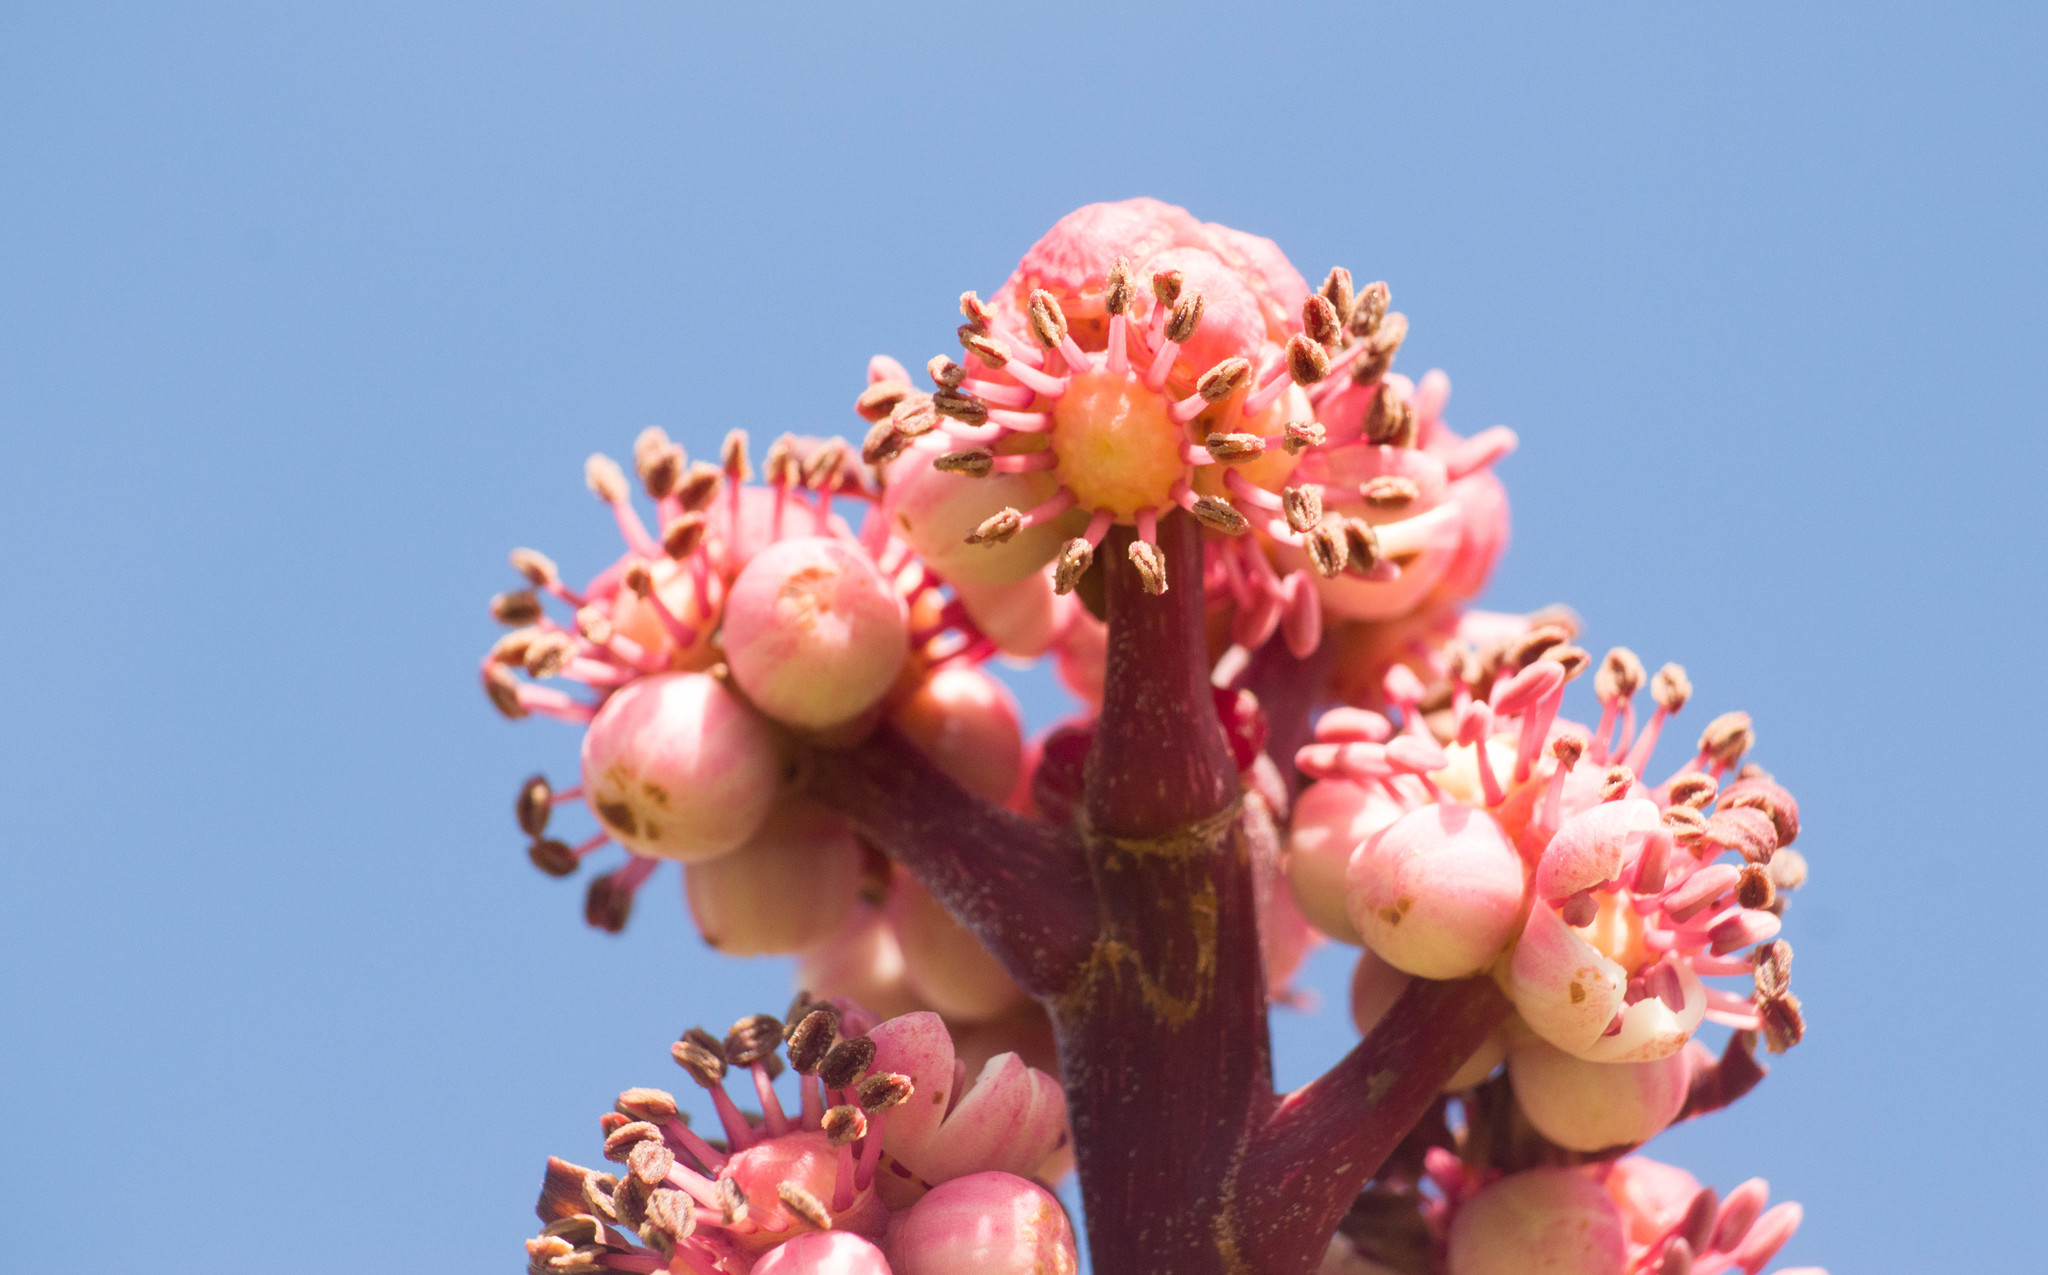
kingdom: Plantae
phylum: Tracheophyta
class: Magnoliopsida
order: Apiales
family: Araliaceae
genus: Heptapleurum
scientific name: Heptapleurum actinophyllum
